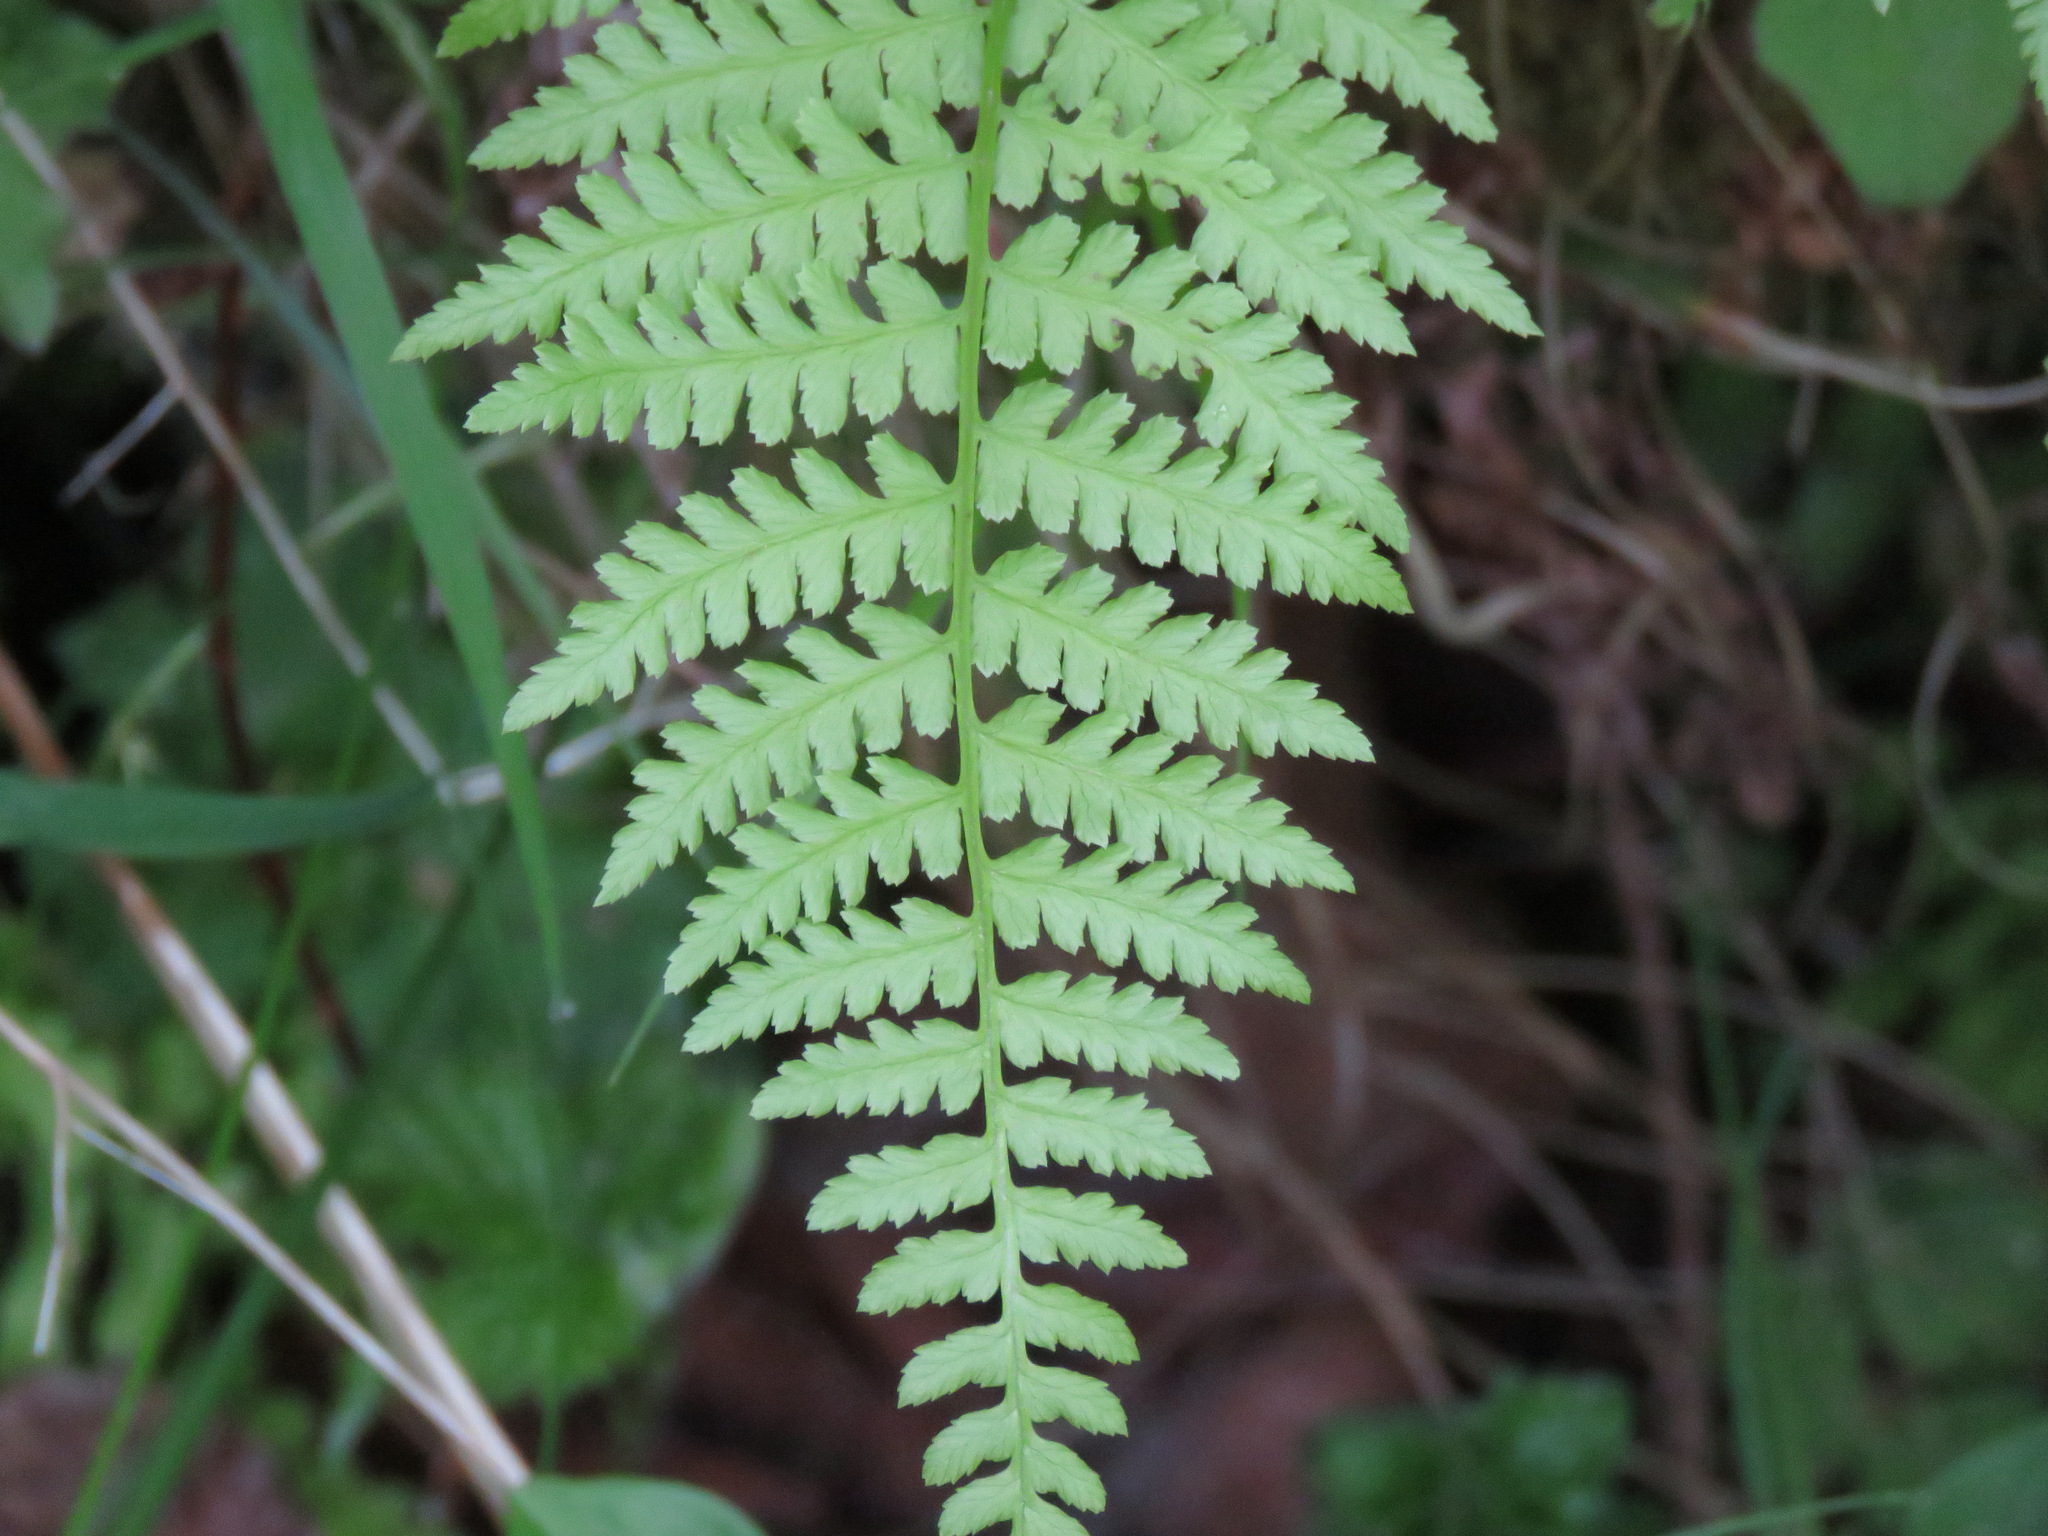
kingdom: Plantae
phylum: Tracheophyta
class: Polypodiopsida
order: Polypodiales
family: Athyriaceae
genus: Athyrium
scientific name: Athyrium filix-femina
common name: Lady fern
